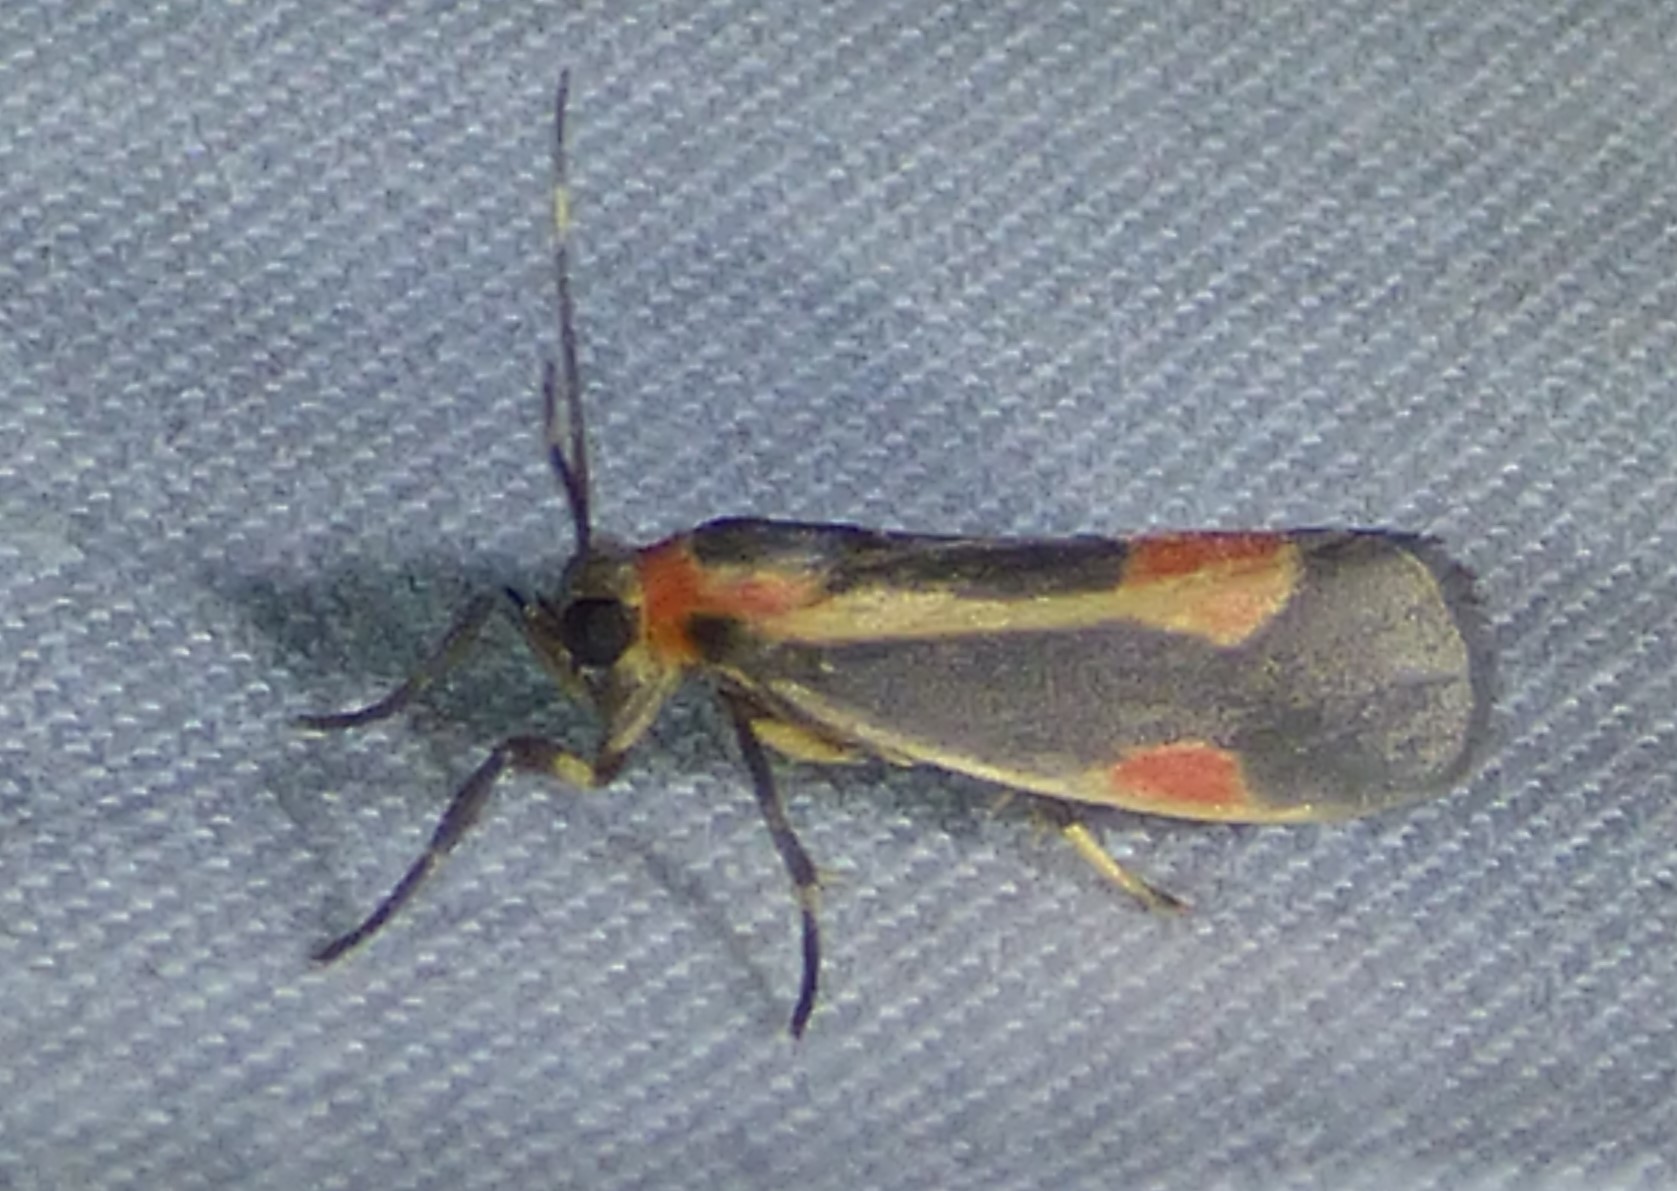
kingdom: Animalia
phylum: Arthropoda
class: Insecta
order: Lepidoptera
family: Erebidae
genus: Cisthene
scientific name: Cisthene packardii
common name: Packard's lichen moth
